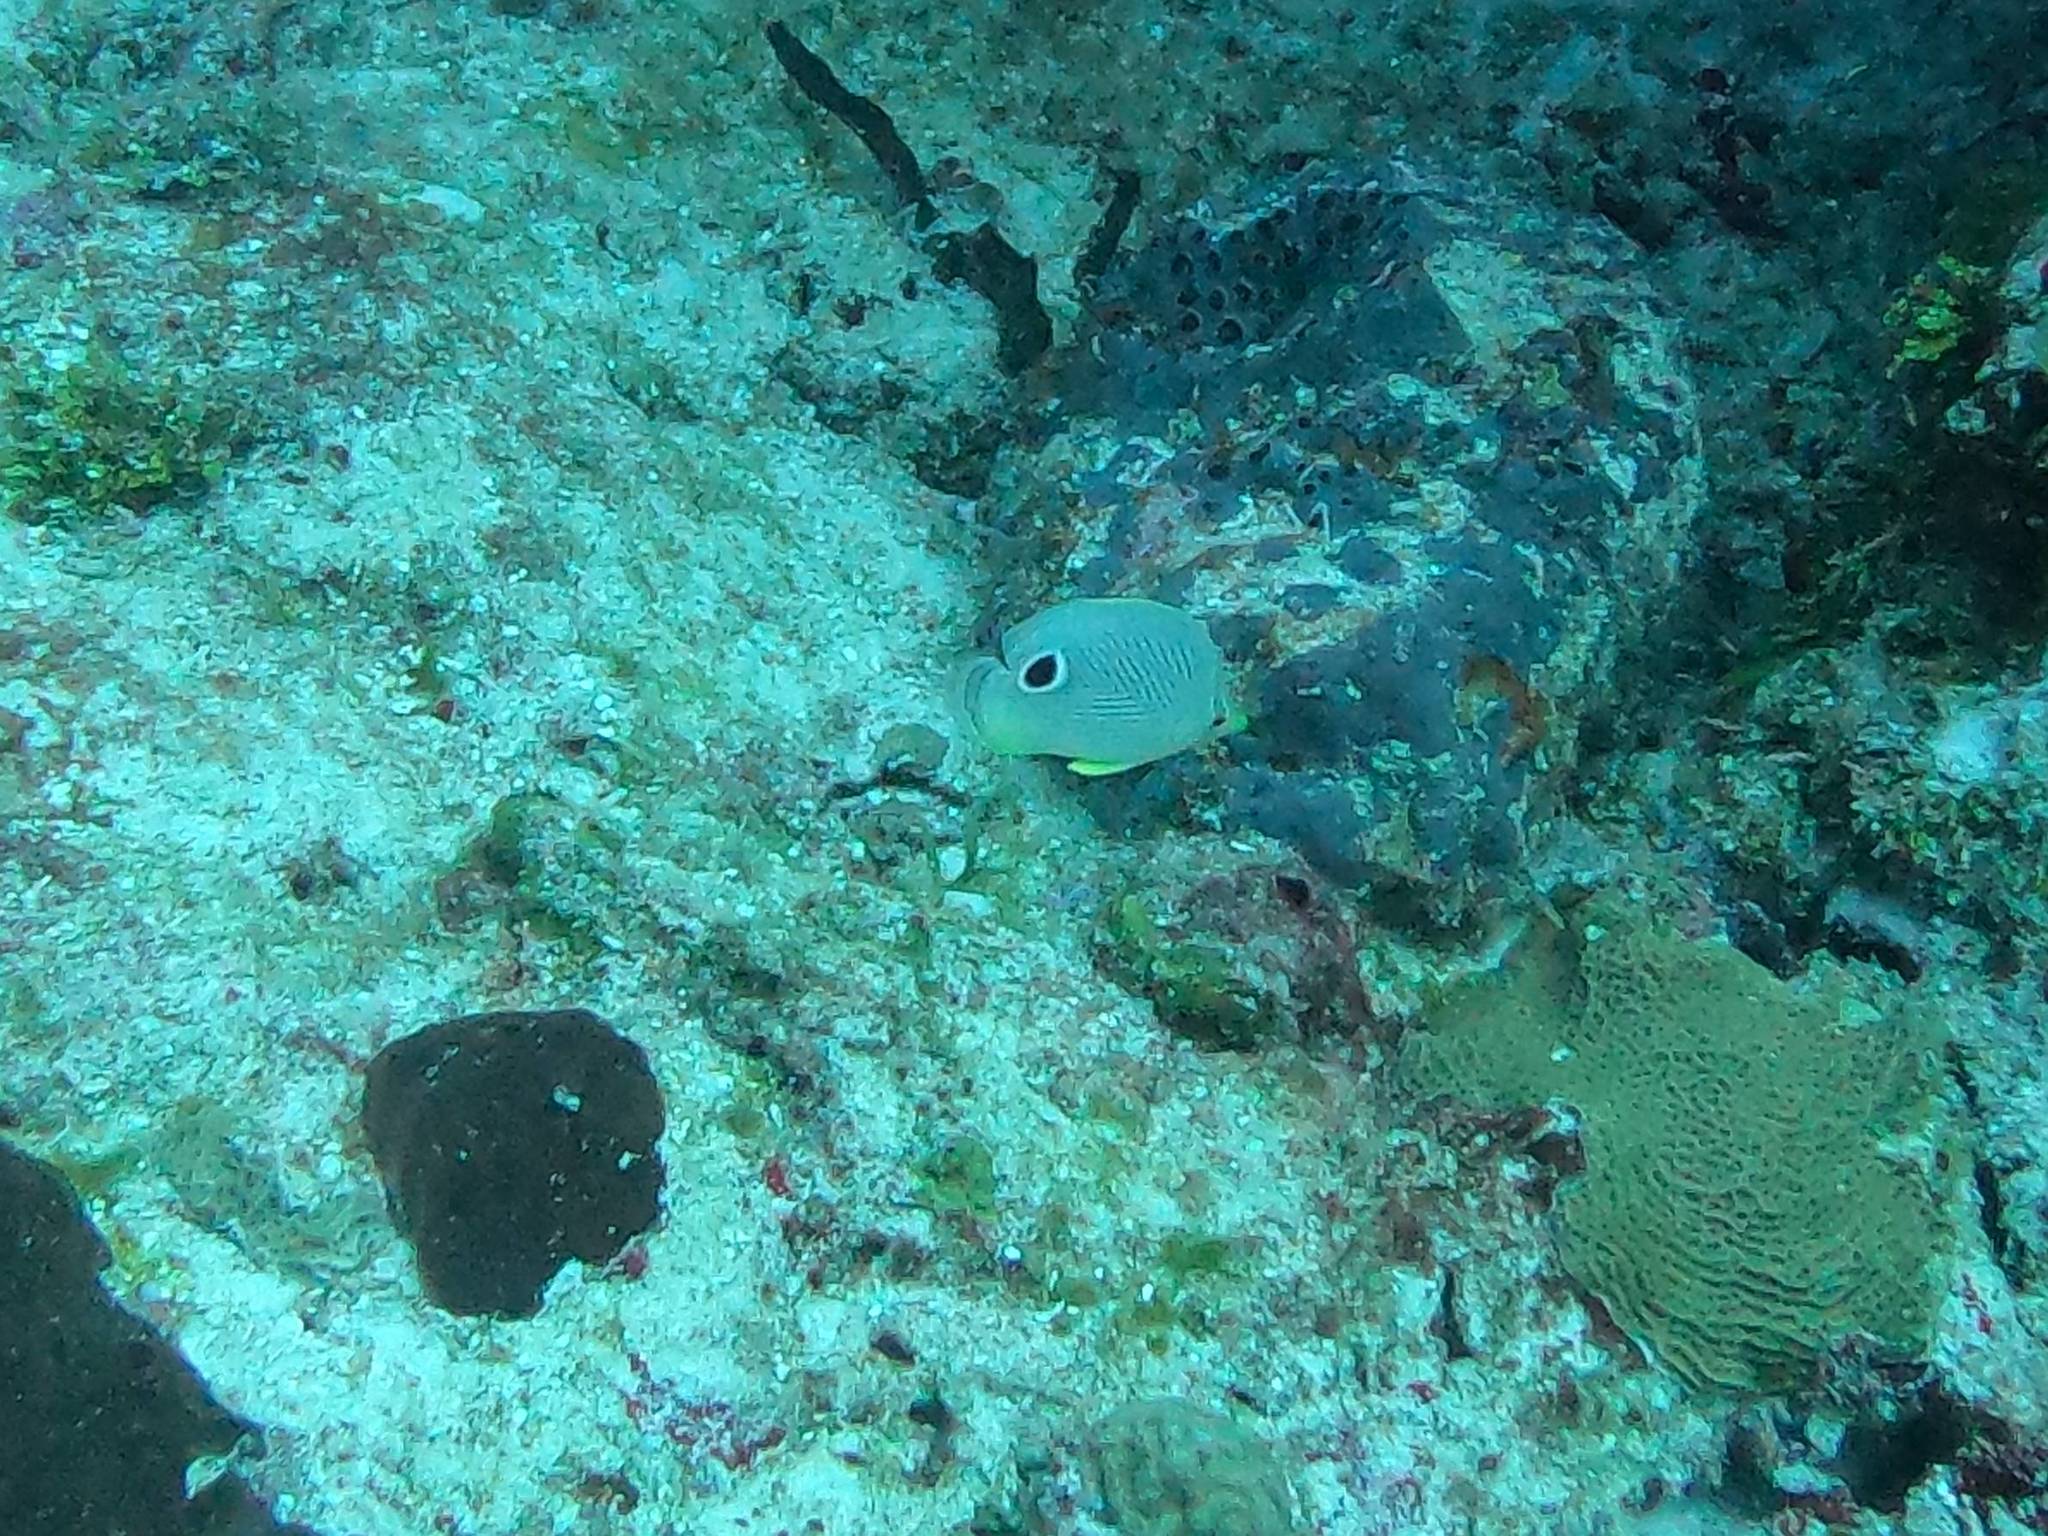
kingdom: Animalia
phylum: Chordata
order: Perciformes
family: Chaetodontidae
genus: Chaetodon
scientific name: Chaetodon capistratus
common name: Kete
